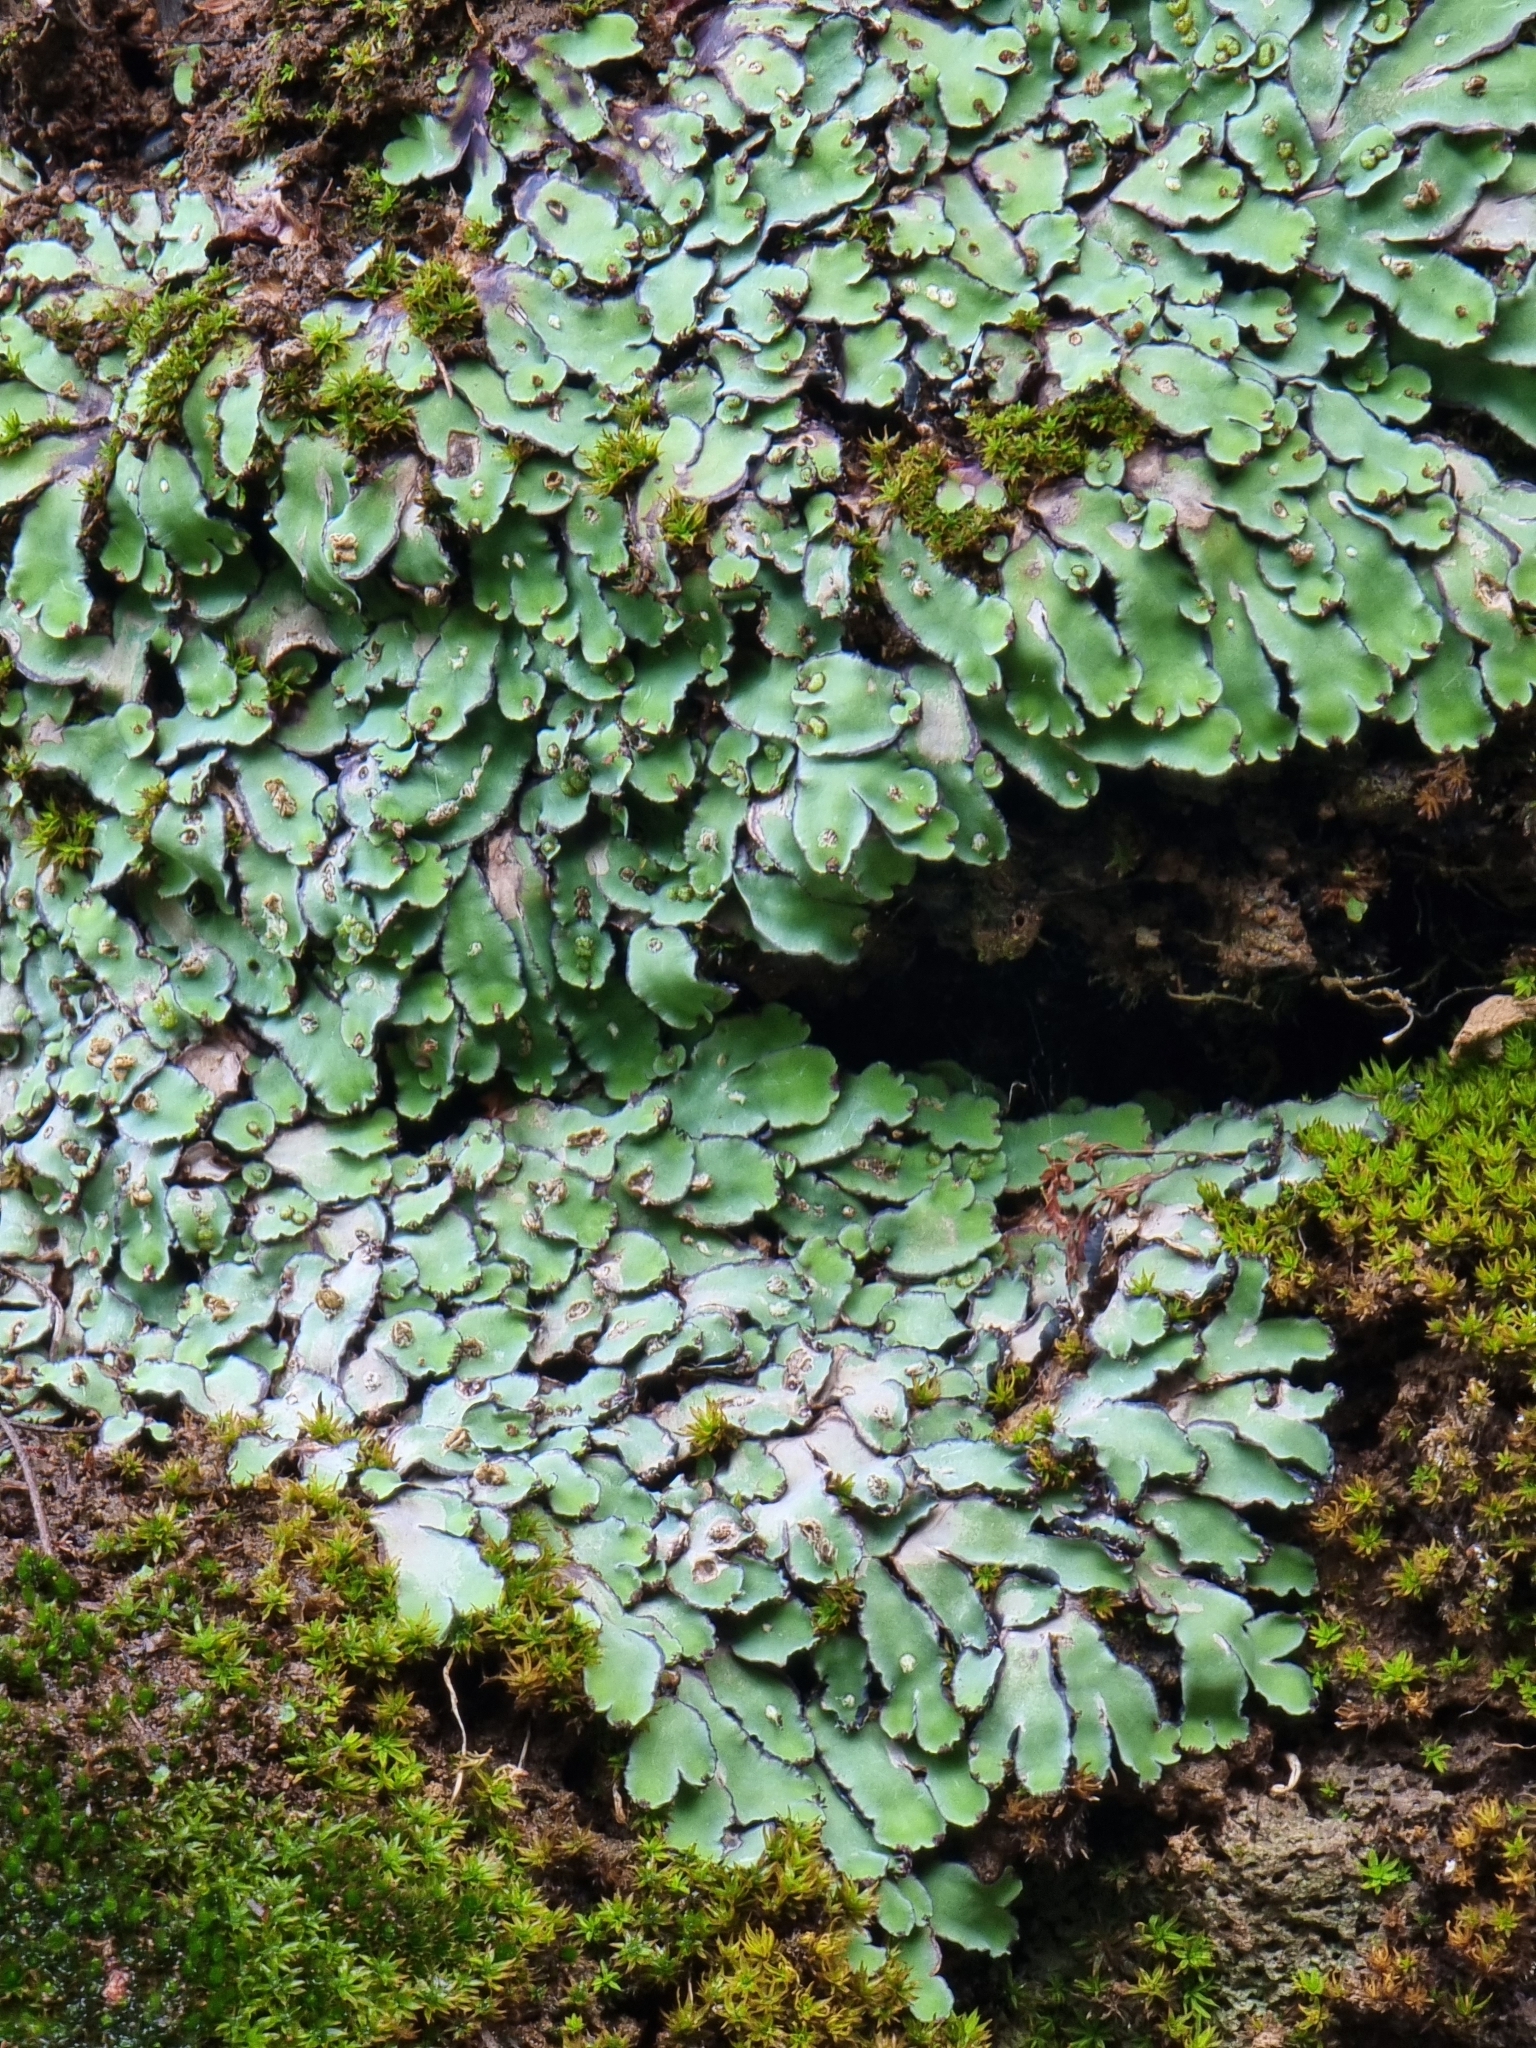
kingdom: Plantae
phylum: Marchantiophyta
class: Marchantiopsida
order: Marchantiales
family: Aytoniaceae
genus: Plagiochasma
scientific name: Plagiochasma rupestre
